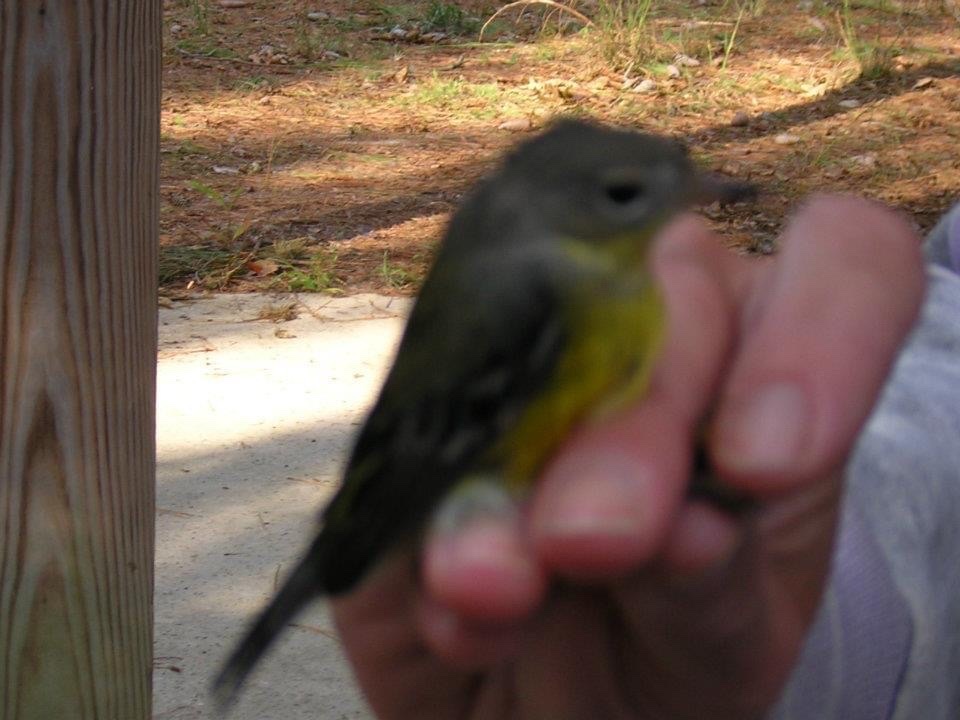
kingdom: Animalia
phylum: Chordata
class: Aves
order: Passeriformes
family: Parulidae
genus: Setophaga
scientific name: Setophaga magnolia
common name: Magnolia warbler
